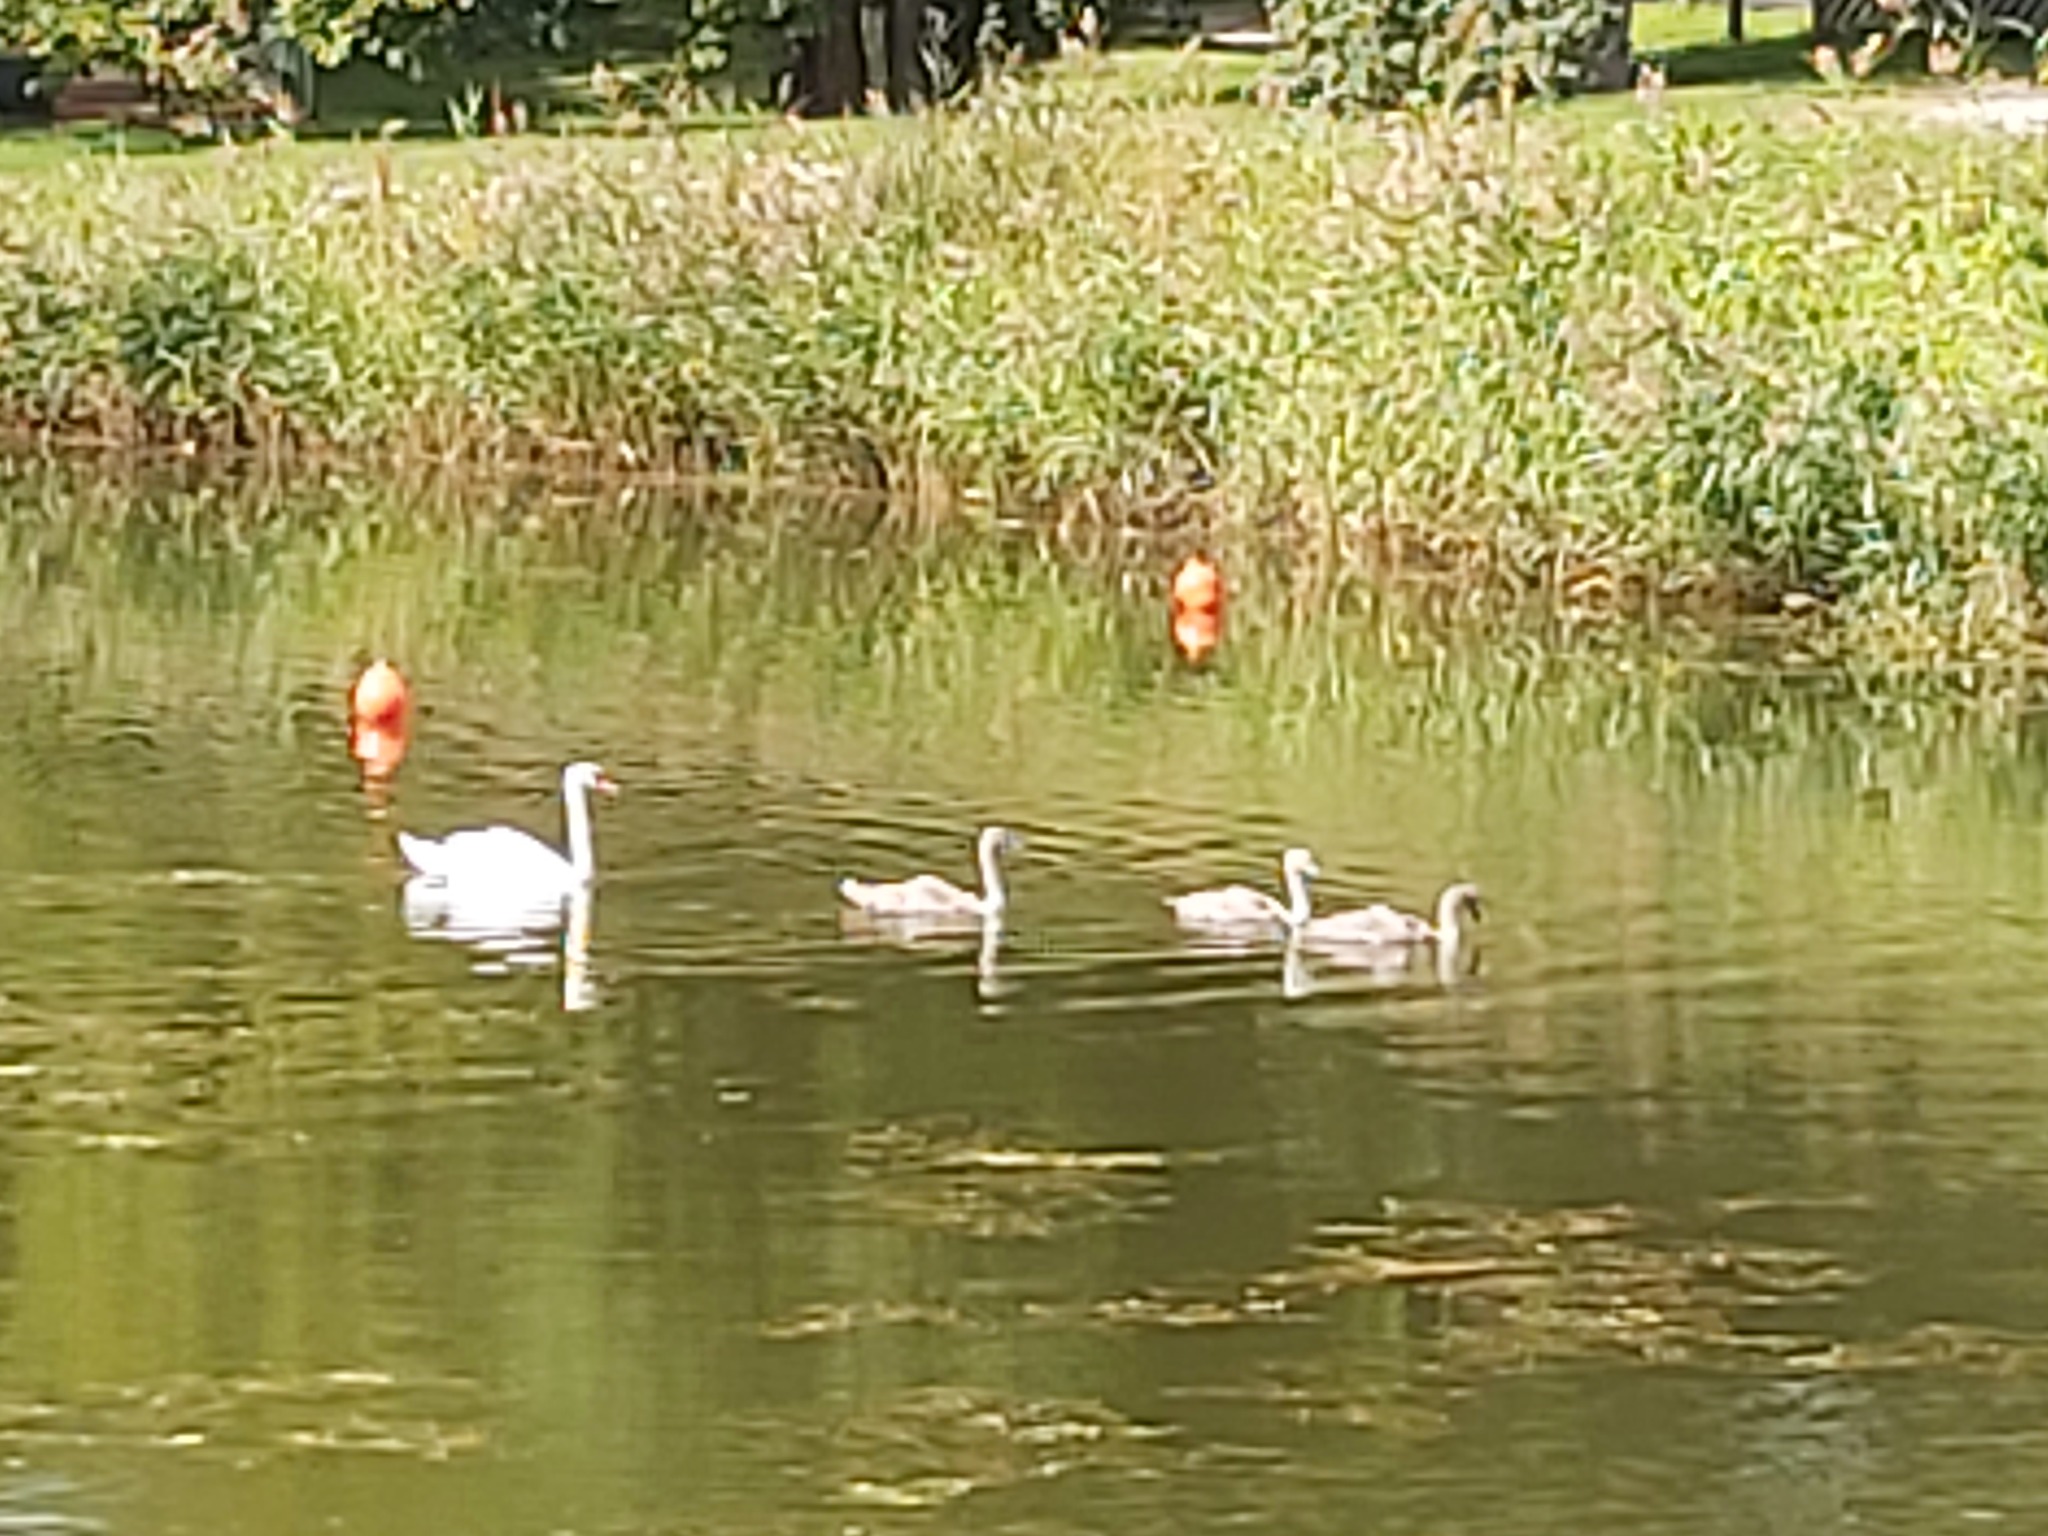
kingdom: Animalia
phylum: Chordata
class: Aves
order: Anseriformes
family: Anatidae
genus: Cygnus
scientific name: Cygnus olor
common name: Mute swan
